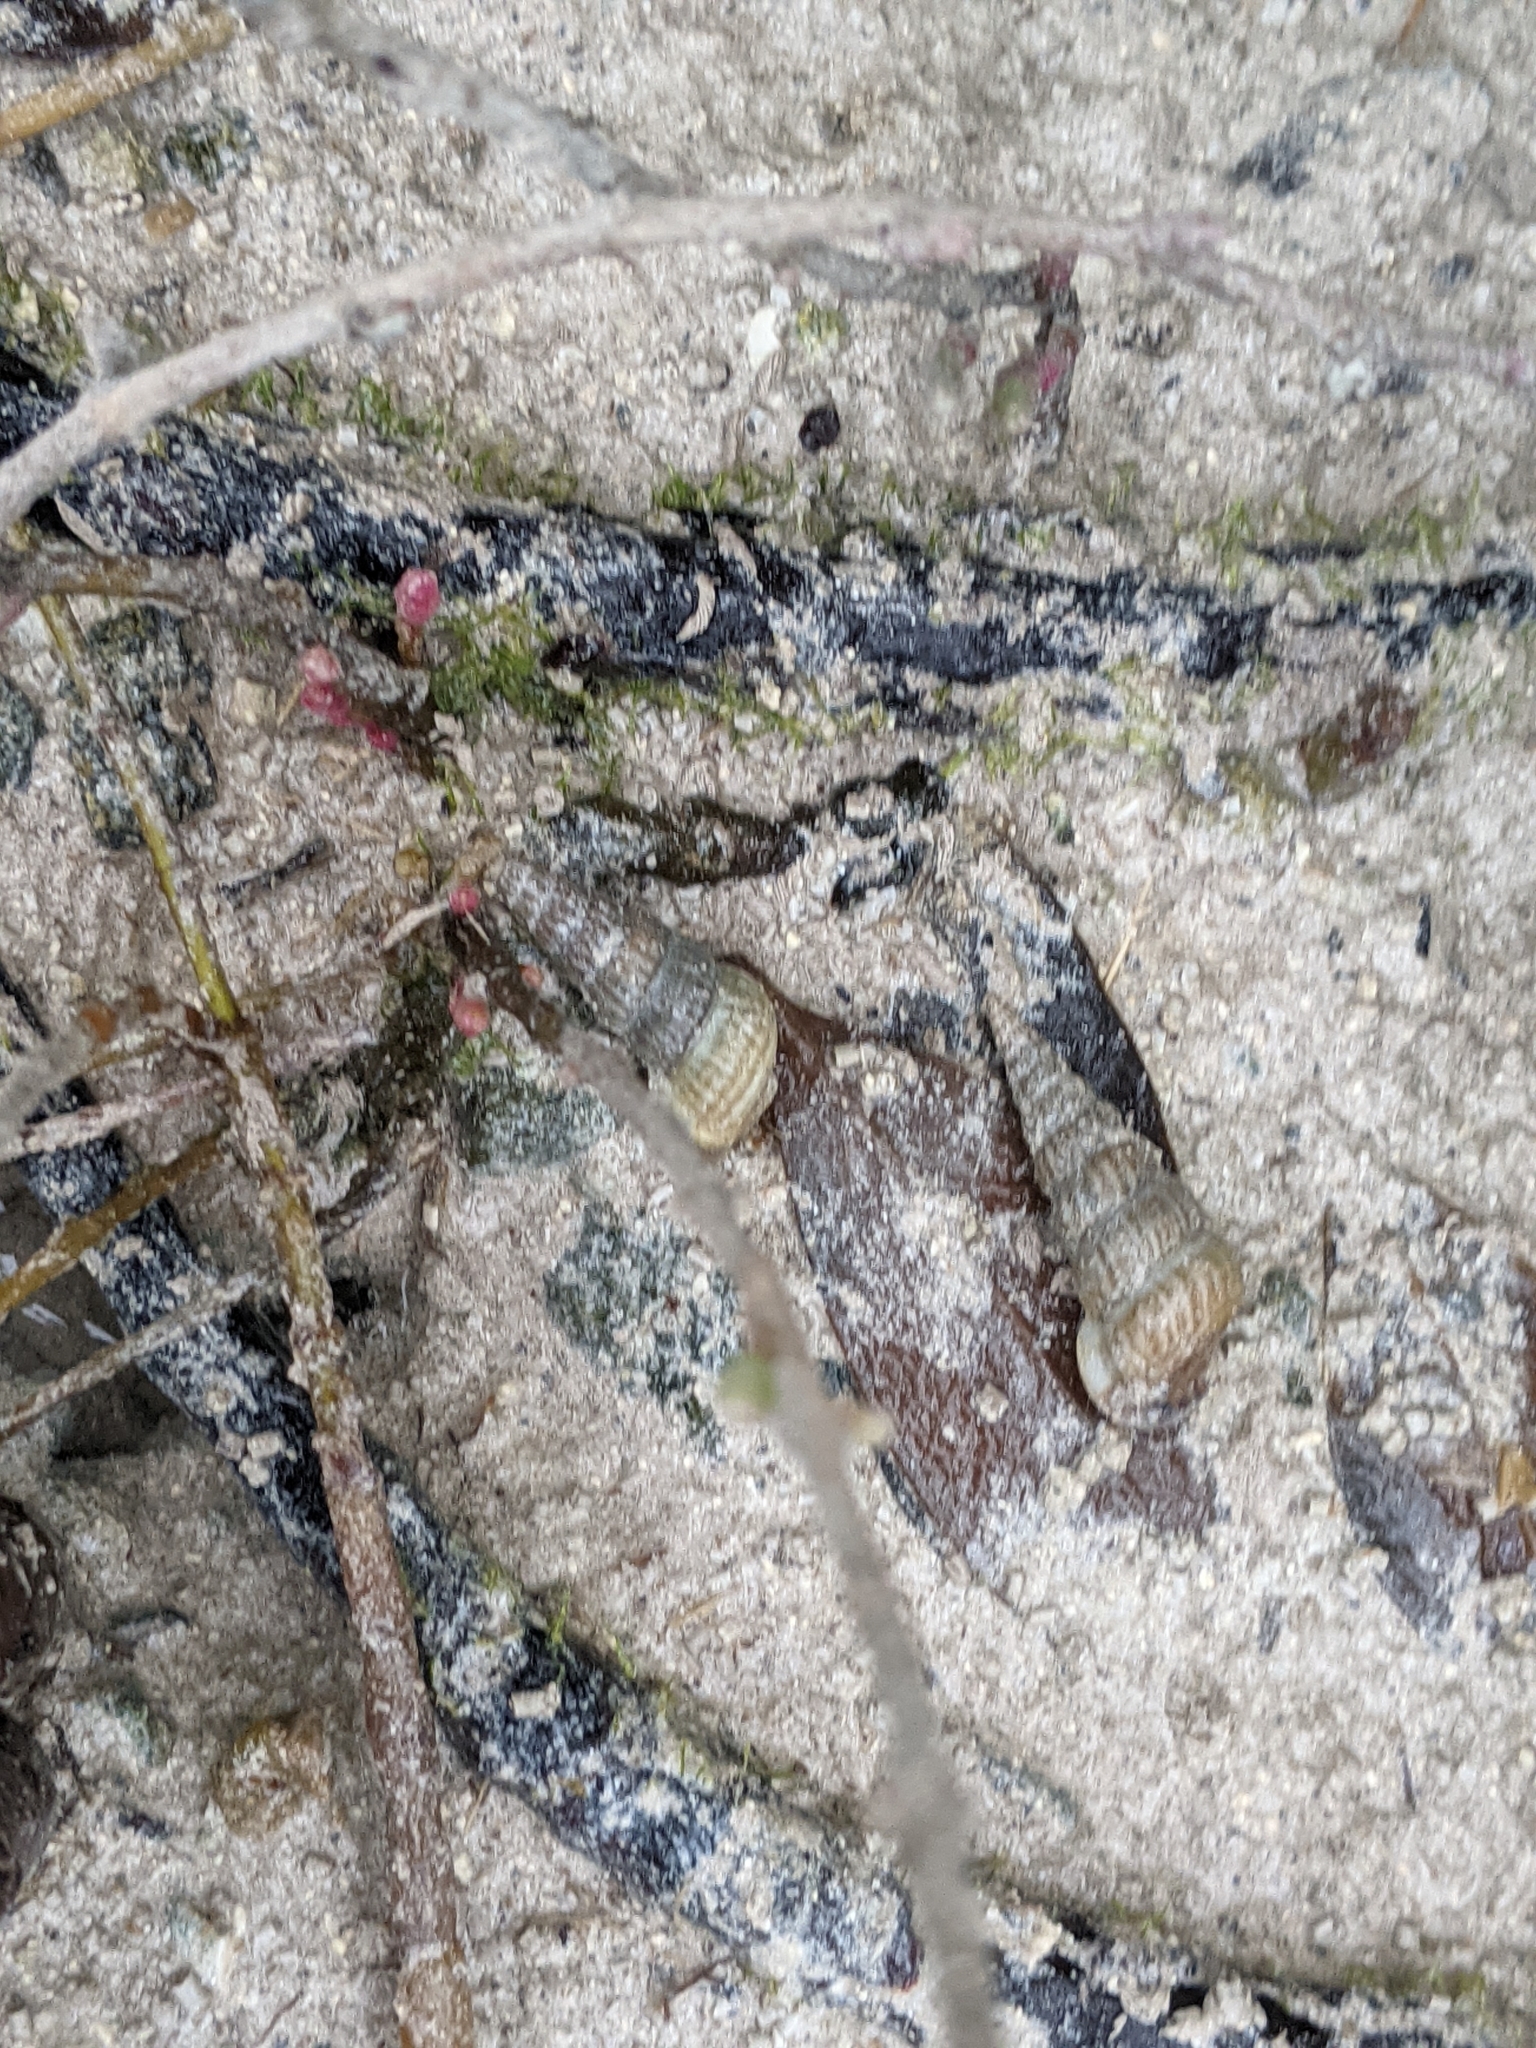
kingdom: Animalia
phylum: Mollusca
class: Gastropoda
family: Potamididae
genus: Cerithideopsis
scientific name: Cerithideopsis scalariformis
